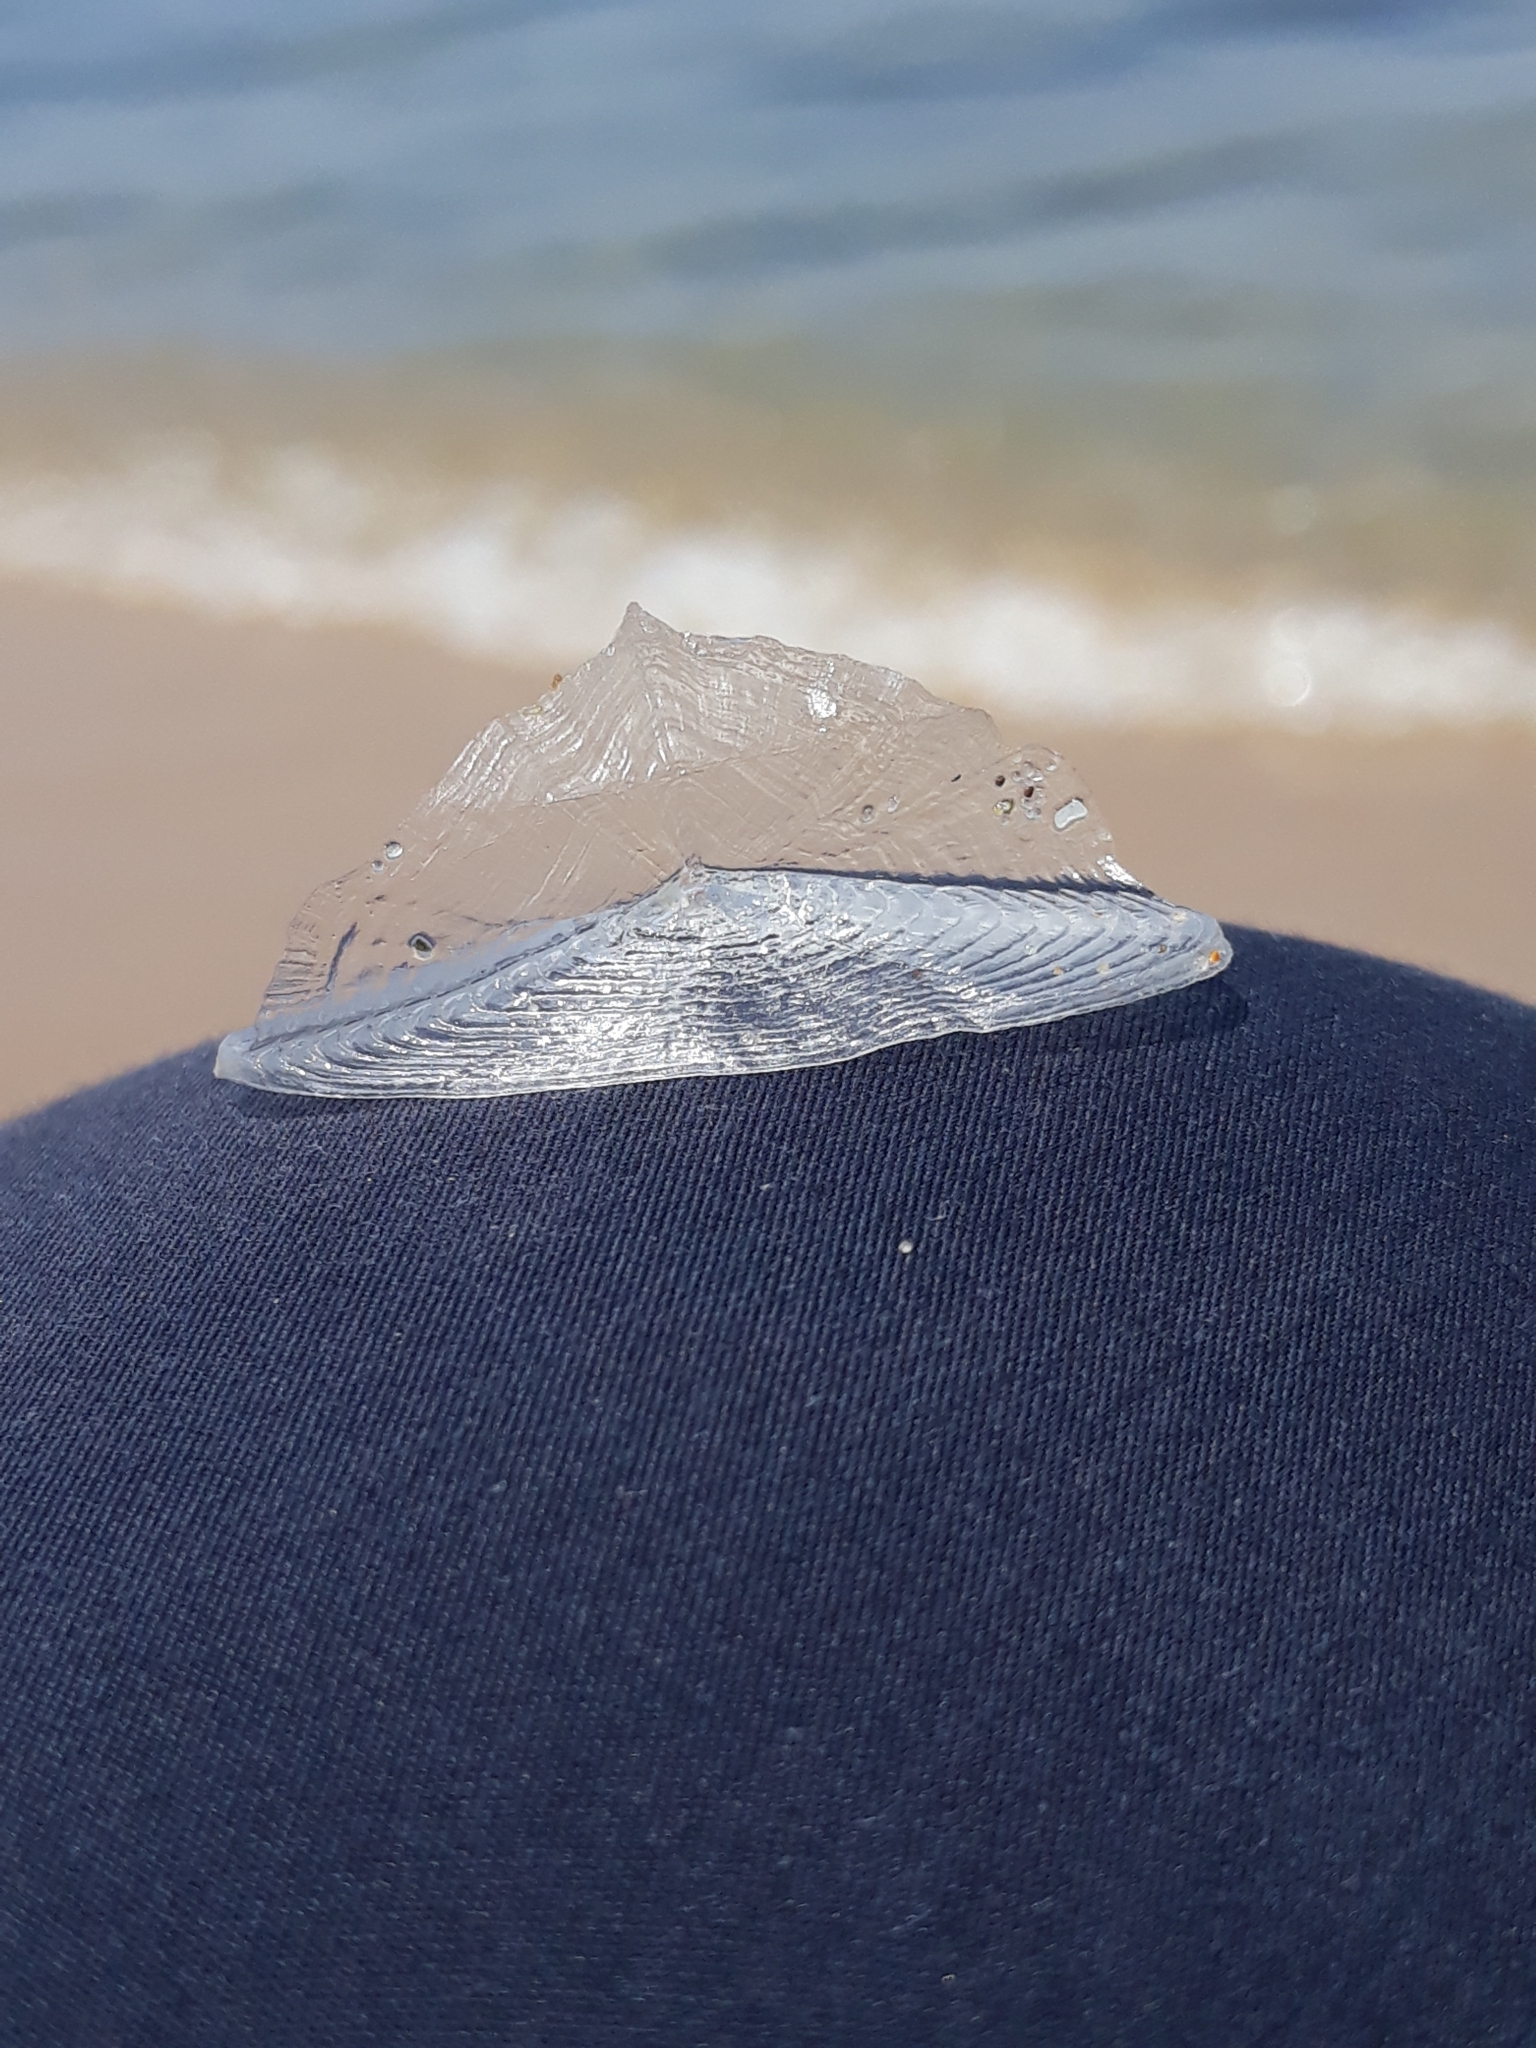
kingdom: Animalia
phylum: Cnidaria
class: Hydrozoa
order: Anthoathecata
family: Porpitidae
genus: Velella
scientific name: Velella velella
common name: By-the-wind-sailor
